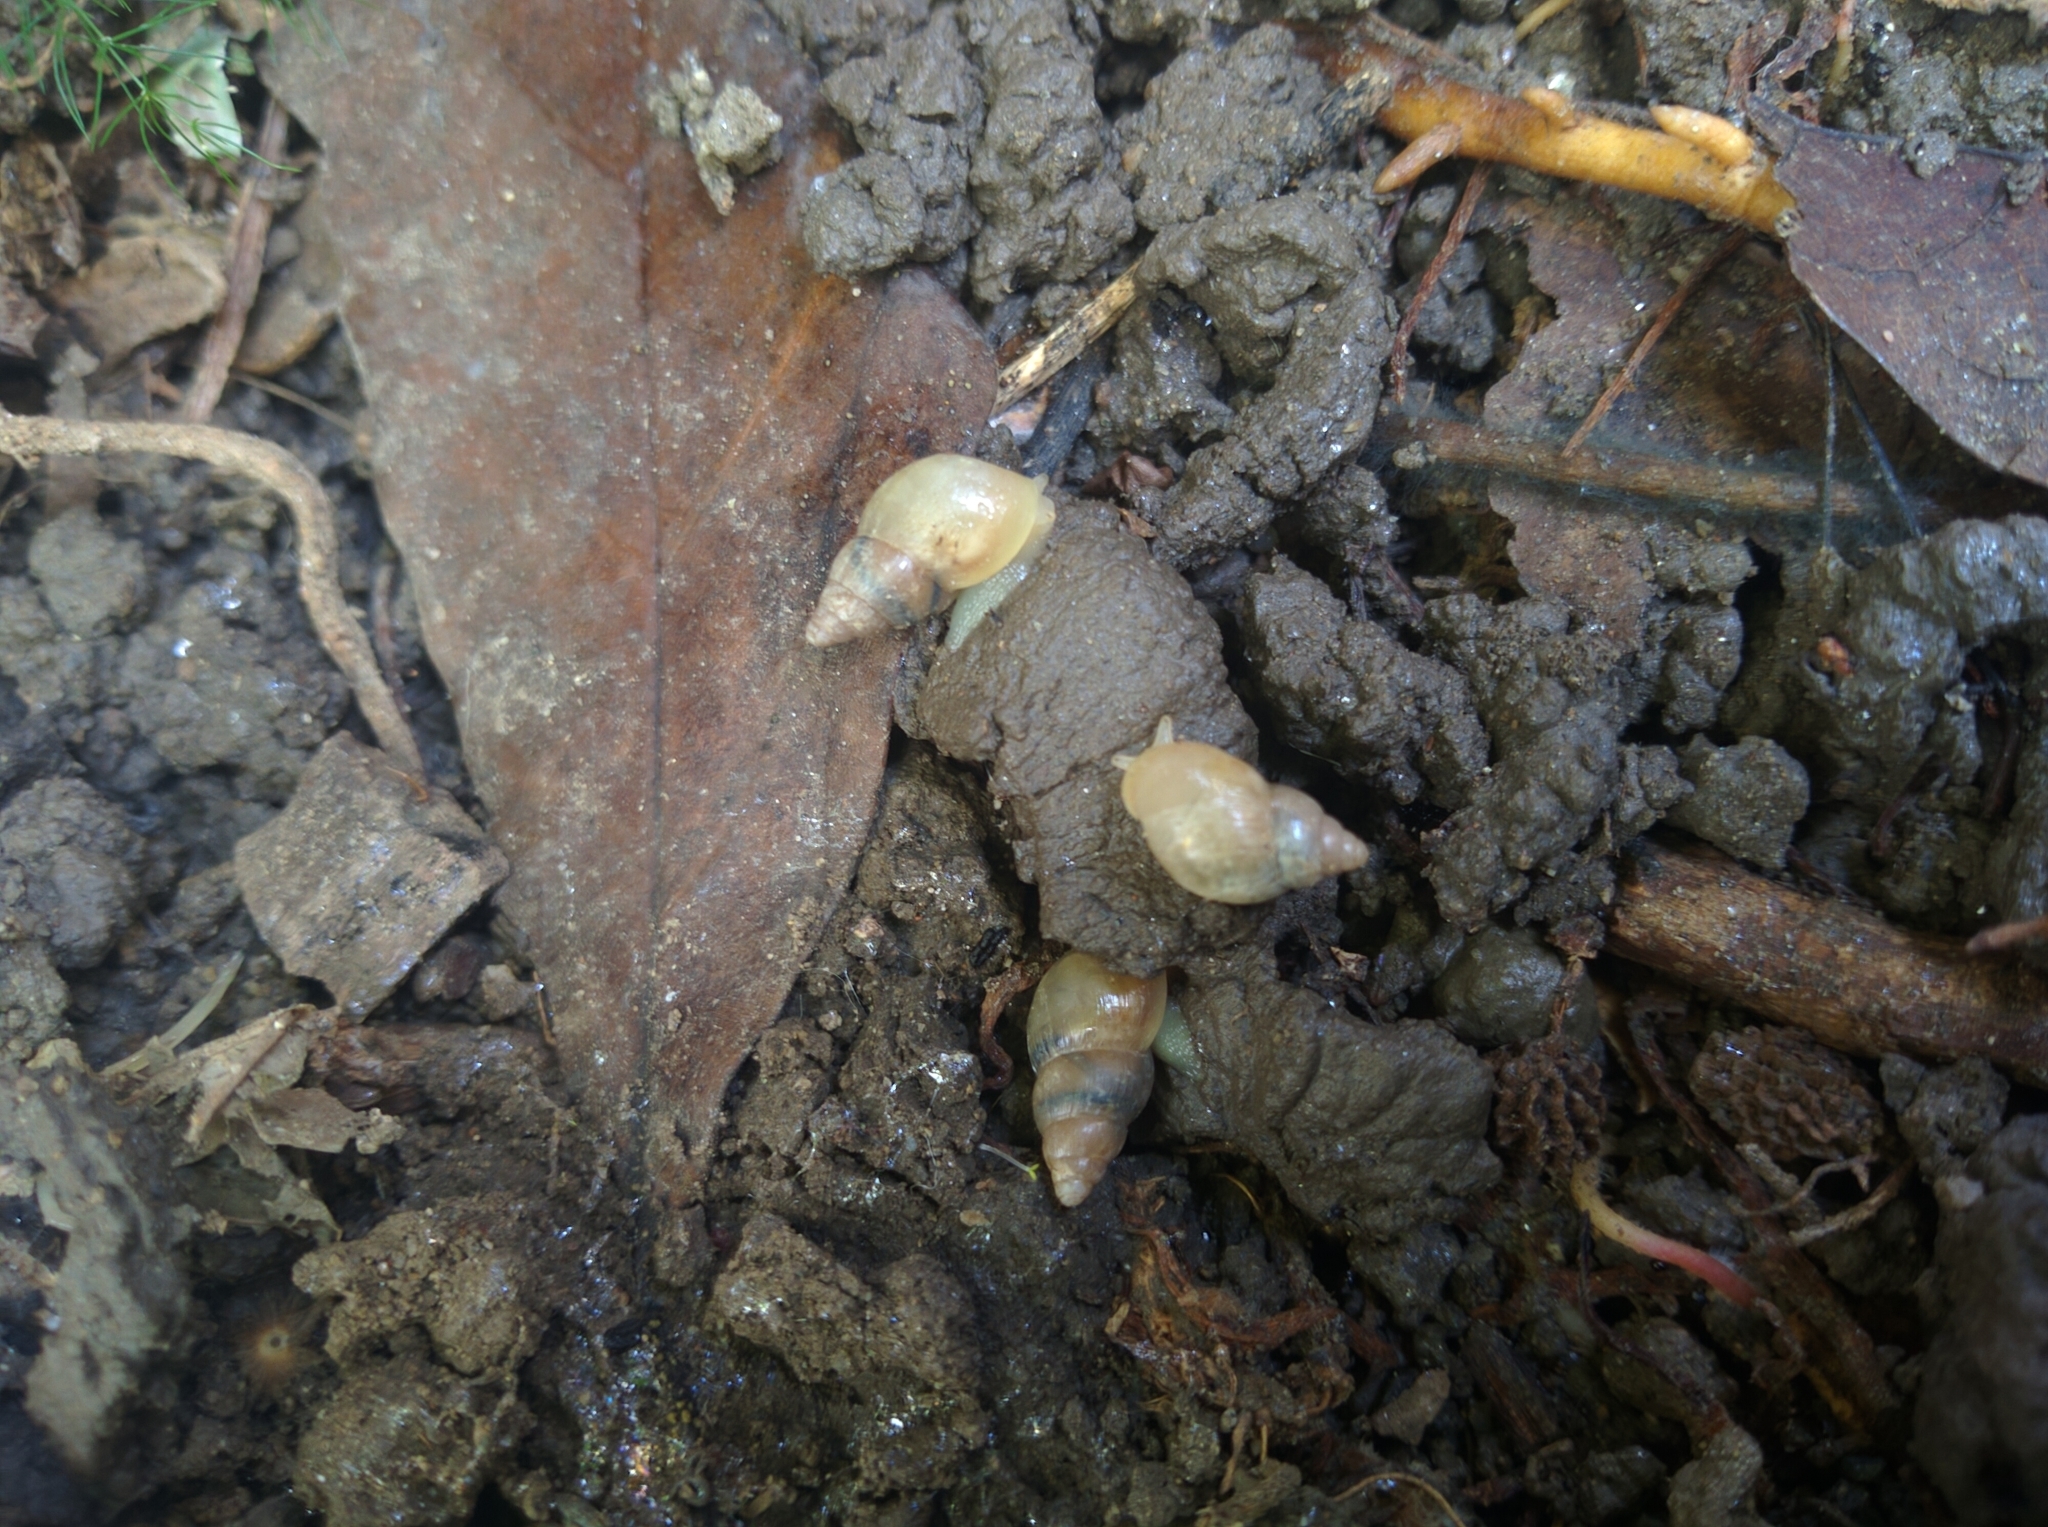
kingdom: Animalia
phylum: Mollusca
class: Gastropoda
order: Stylommatophora
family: Achatinidae
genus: Leptinaria
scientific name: Leptinaria unilamellata
